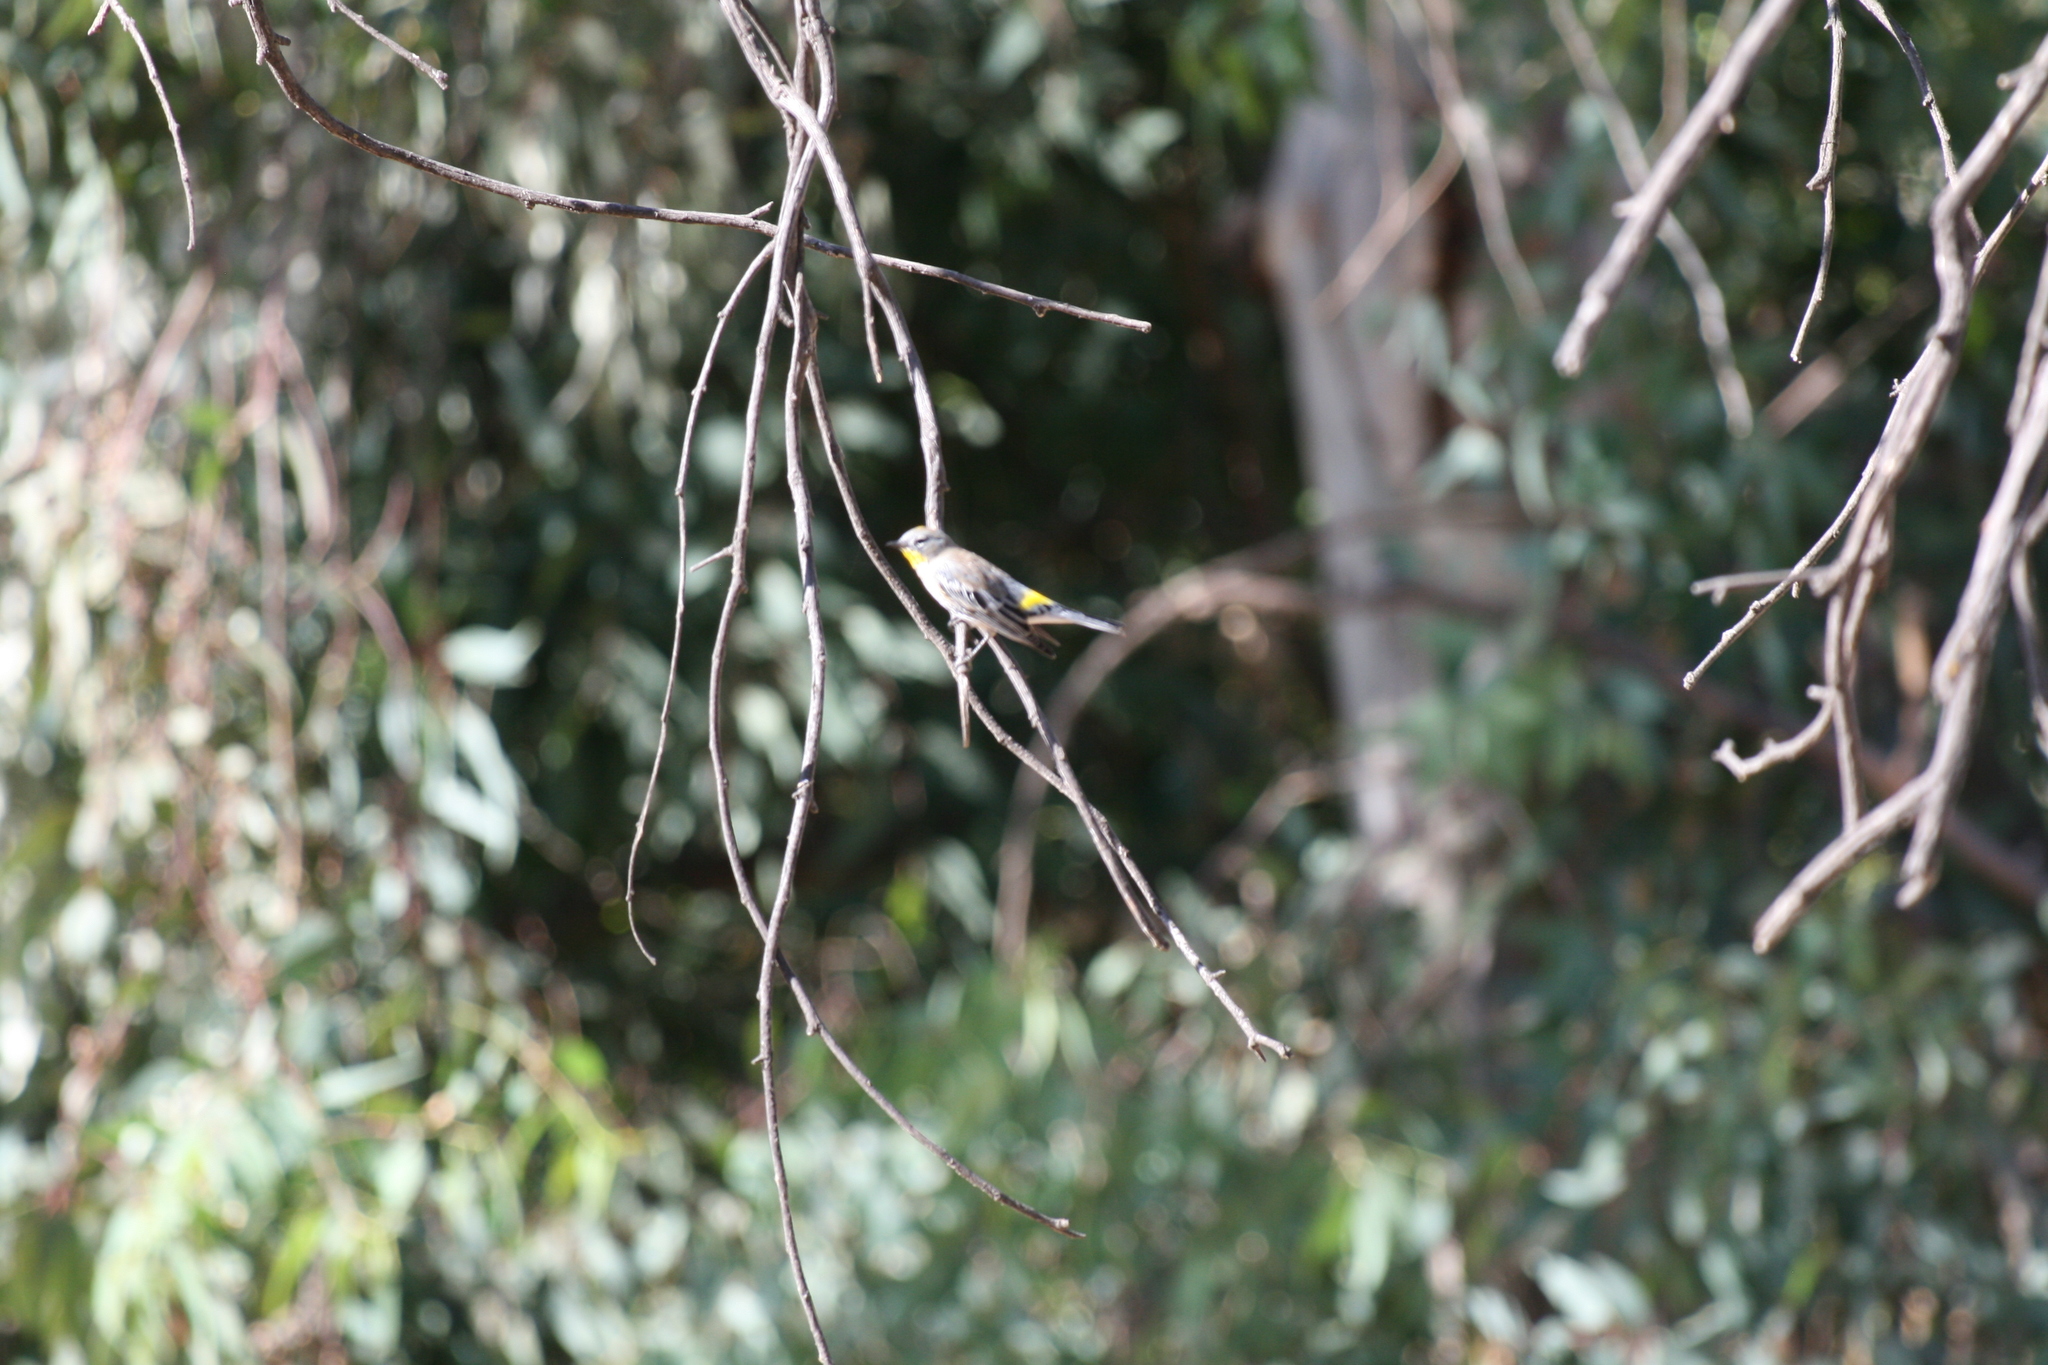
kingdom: Animalia
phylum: Chordata
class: Aves
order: Passeriformes
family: Parulidae
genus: Setophaga
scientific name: Setophaga coronata
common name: Myrtle warbler
